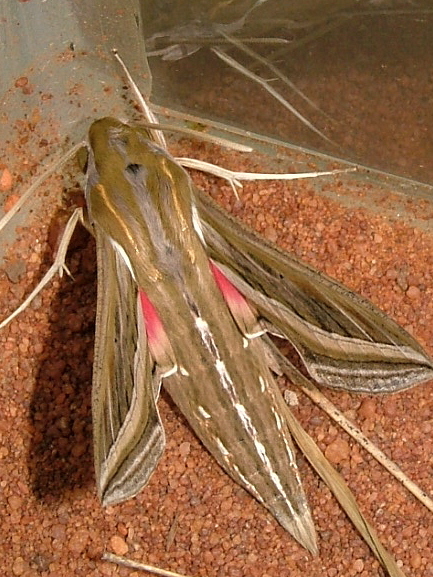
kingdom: Animalia
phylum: Arthropoda
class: Insecta
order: Lepidoptera
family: Sphingidae
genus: Hippotion
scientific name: Hippotion celerio
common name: Silver-striped hawk-moth
